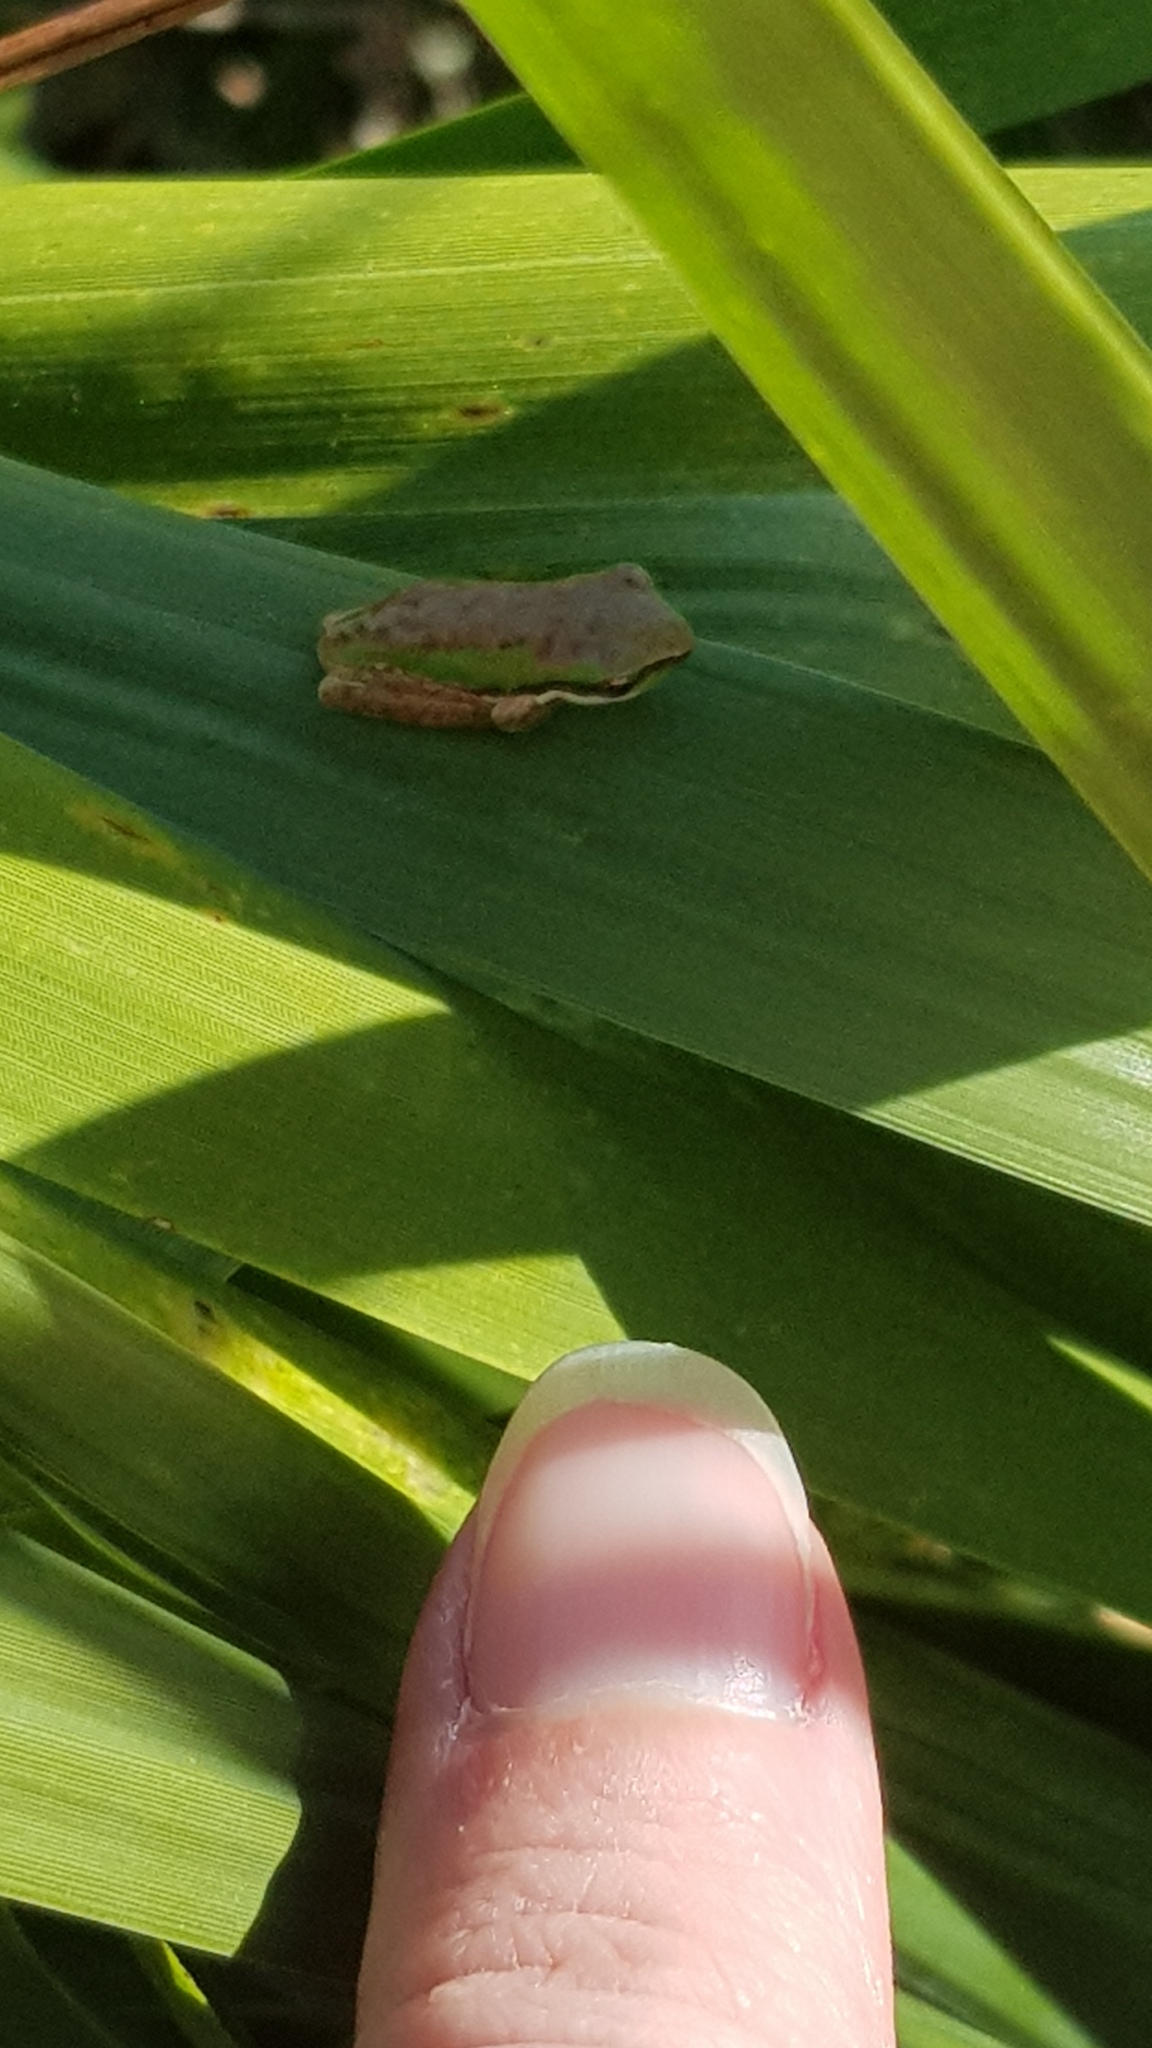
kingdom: Animalia
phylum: Chordata
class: Amphibia
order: Anura
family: Pelodryadidae
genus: Litoria
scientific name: Litoria fallax
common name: Eastern dwarf treefrog
